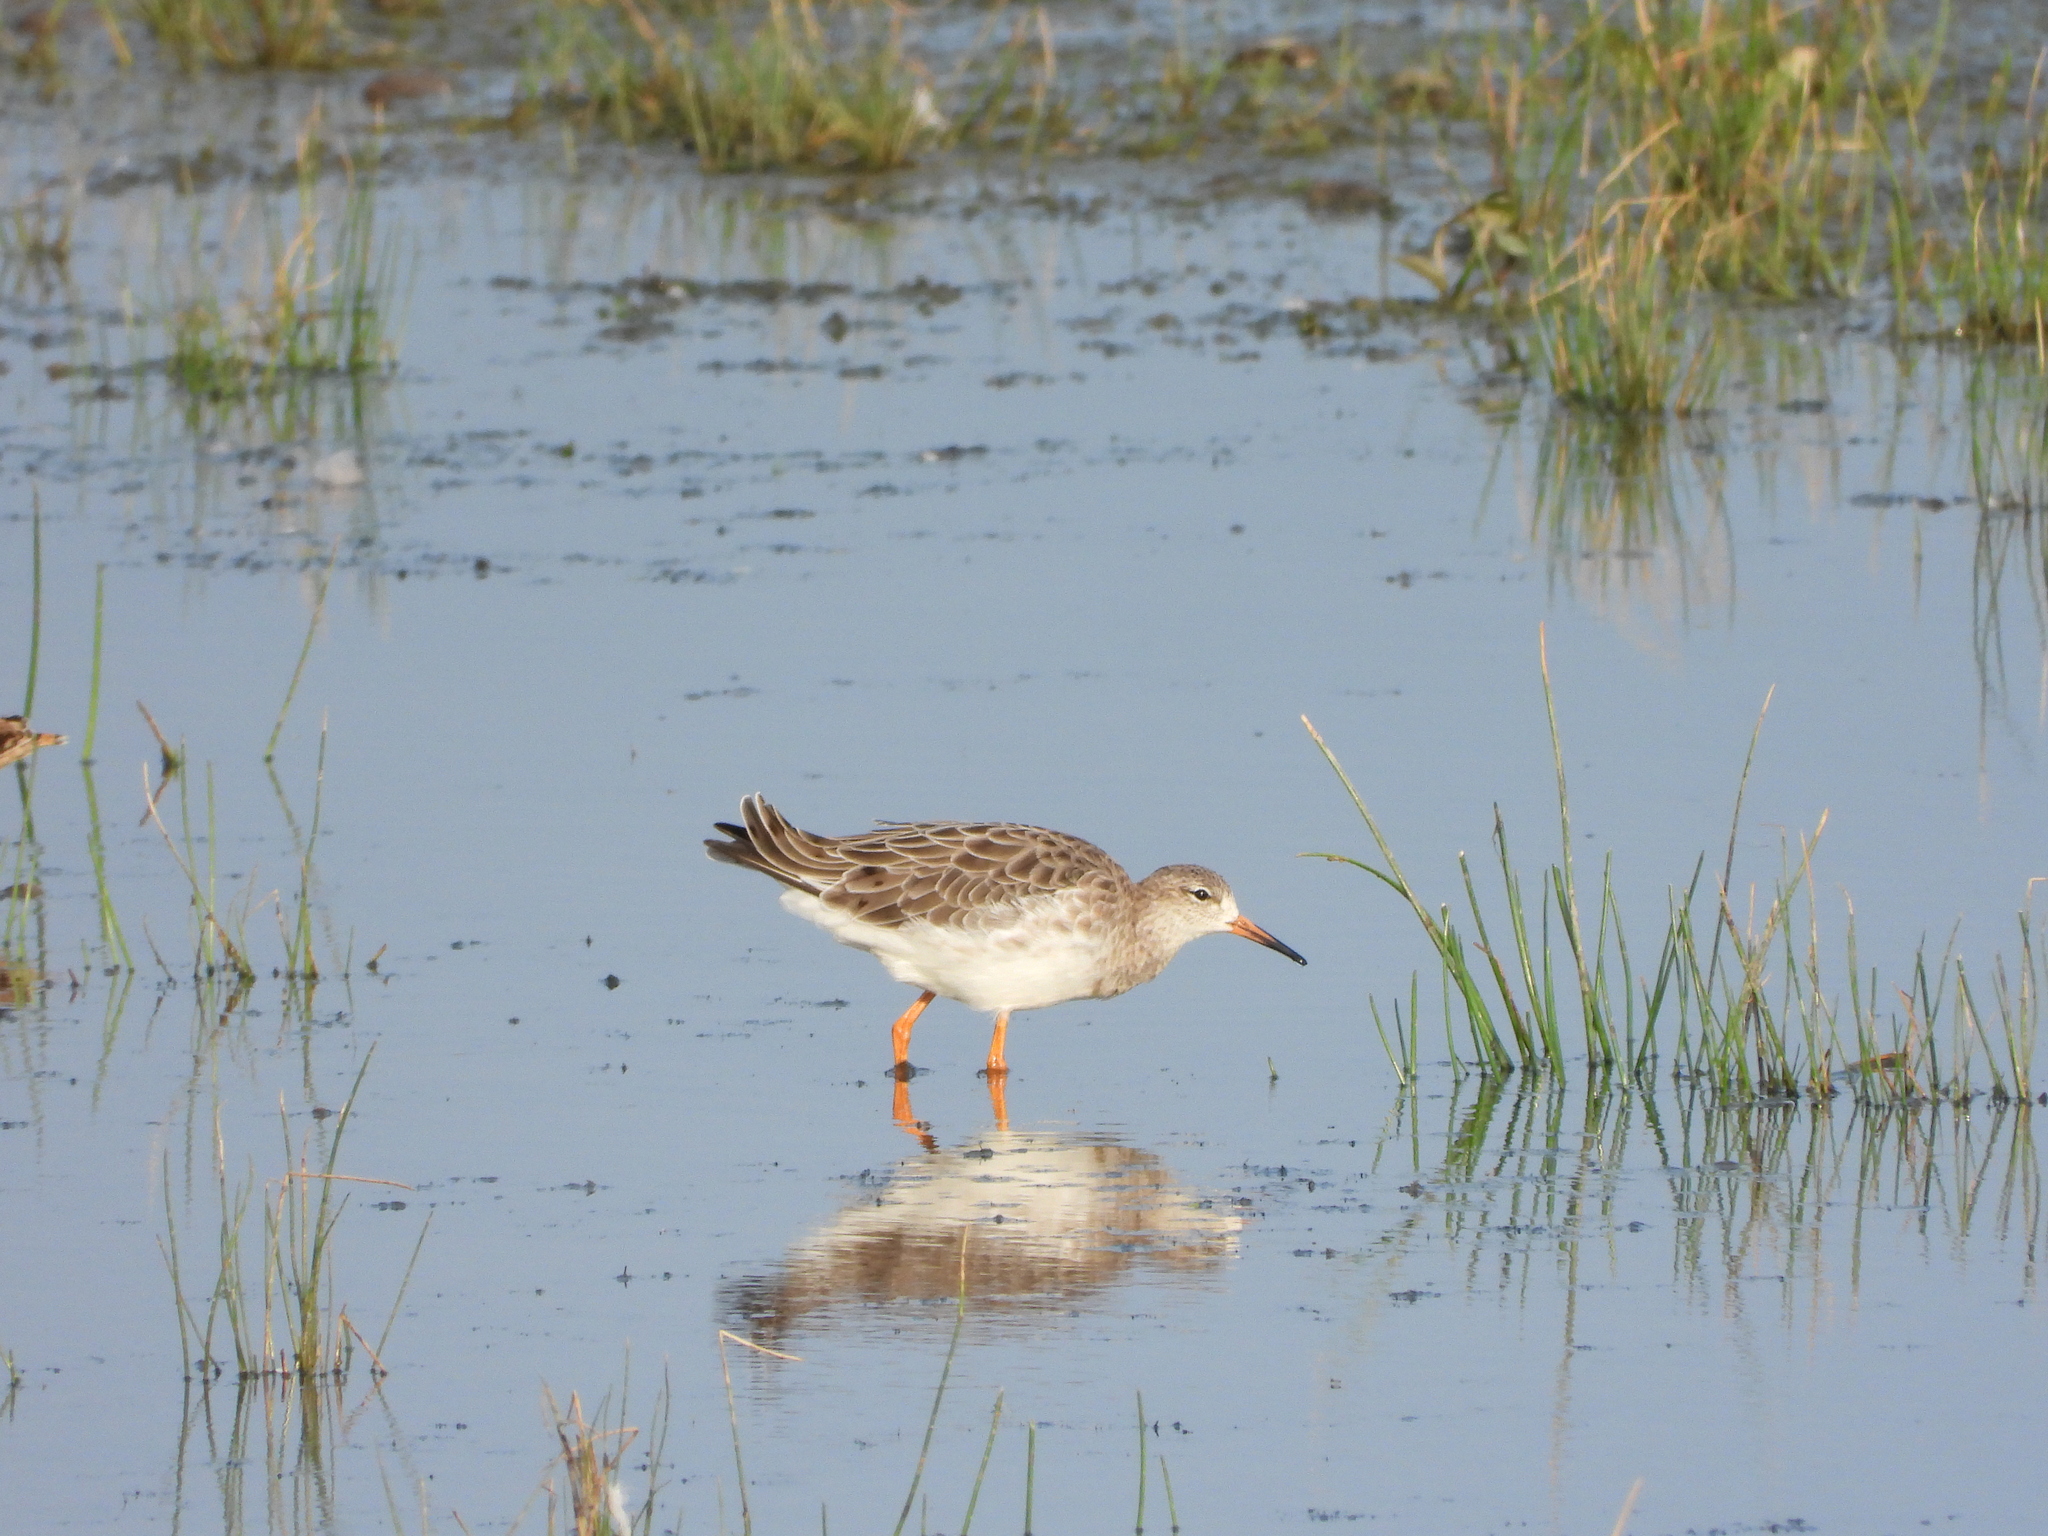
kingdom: Animalia
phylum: Chordata
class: Aves
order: Charadriiformes
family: Scolopacidae
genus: Calidris
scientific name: Calidris pugnax
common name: Ruff
